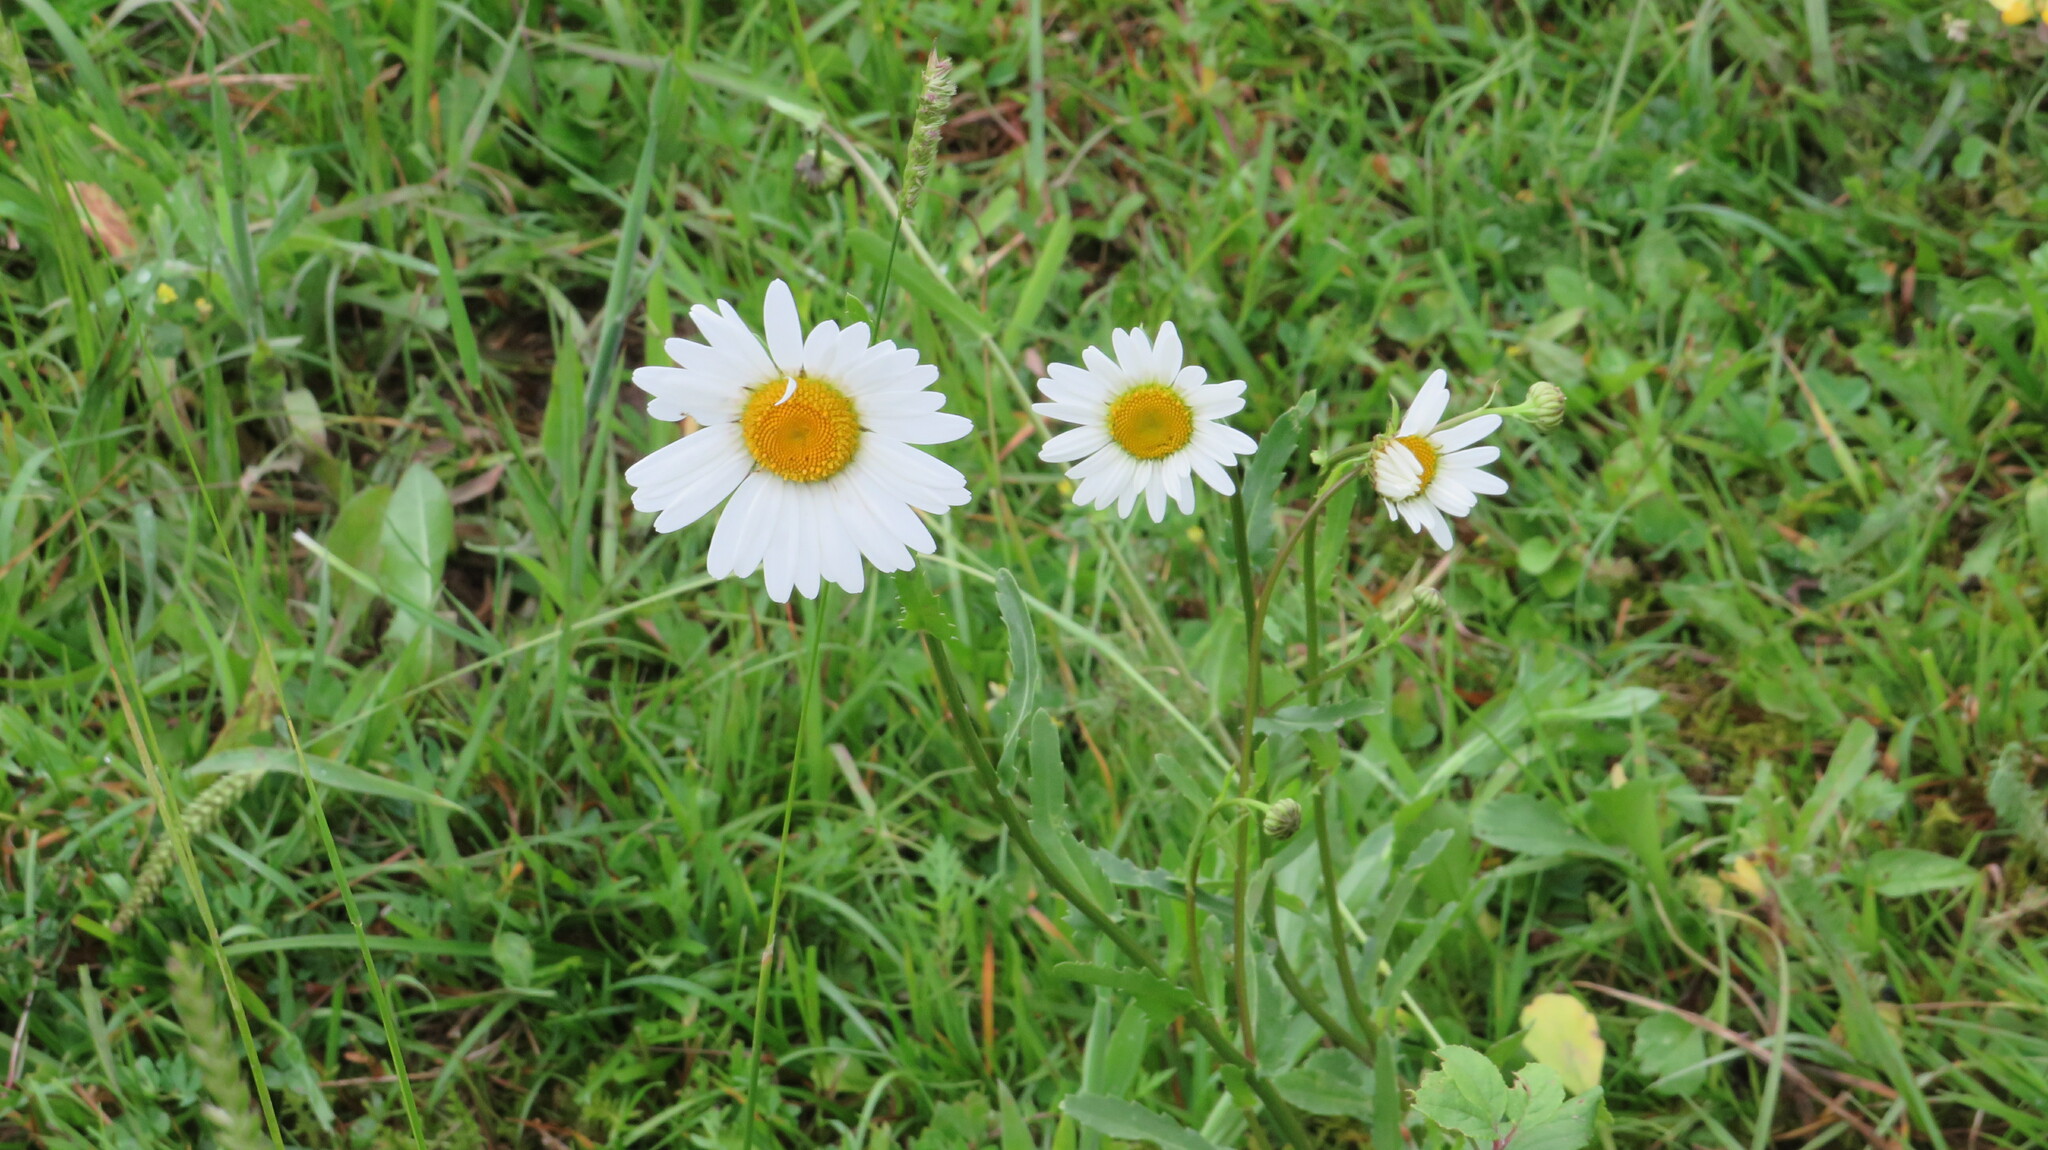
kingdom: Plantae
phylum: Tracheophyta
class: Magnoliopsida
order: Asterales
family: Asteraceae
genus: Leucanthemum
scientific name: Leucanthemum vulgare
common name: Oxeye daisy
